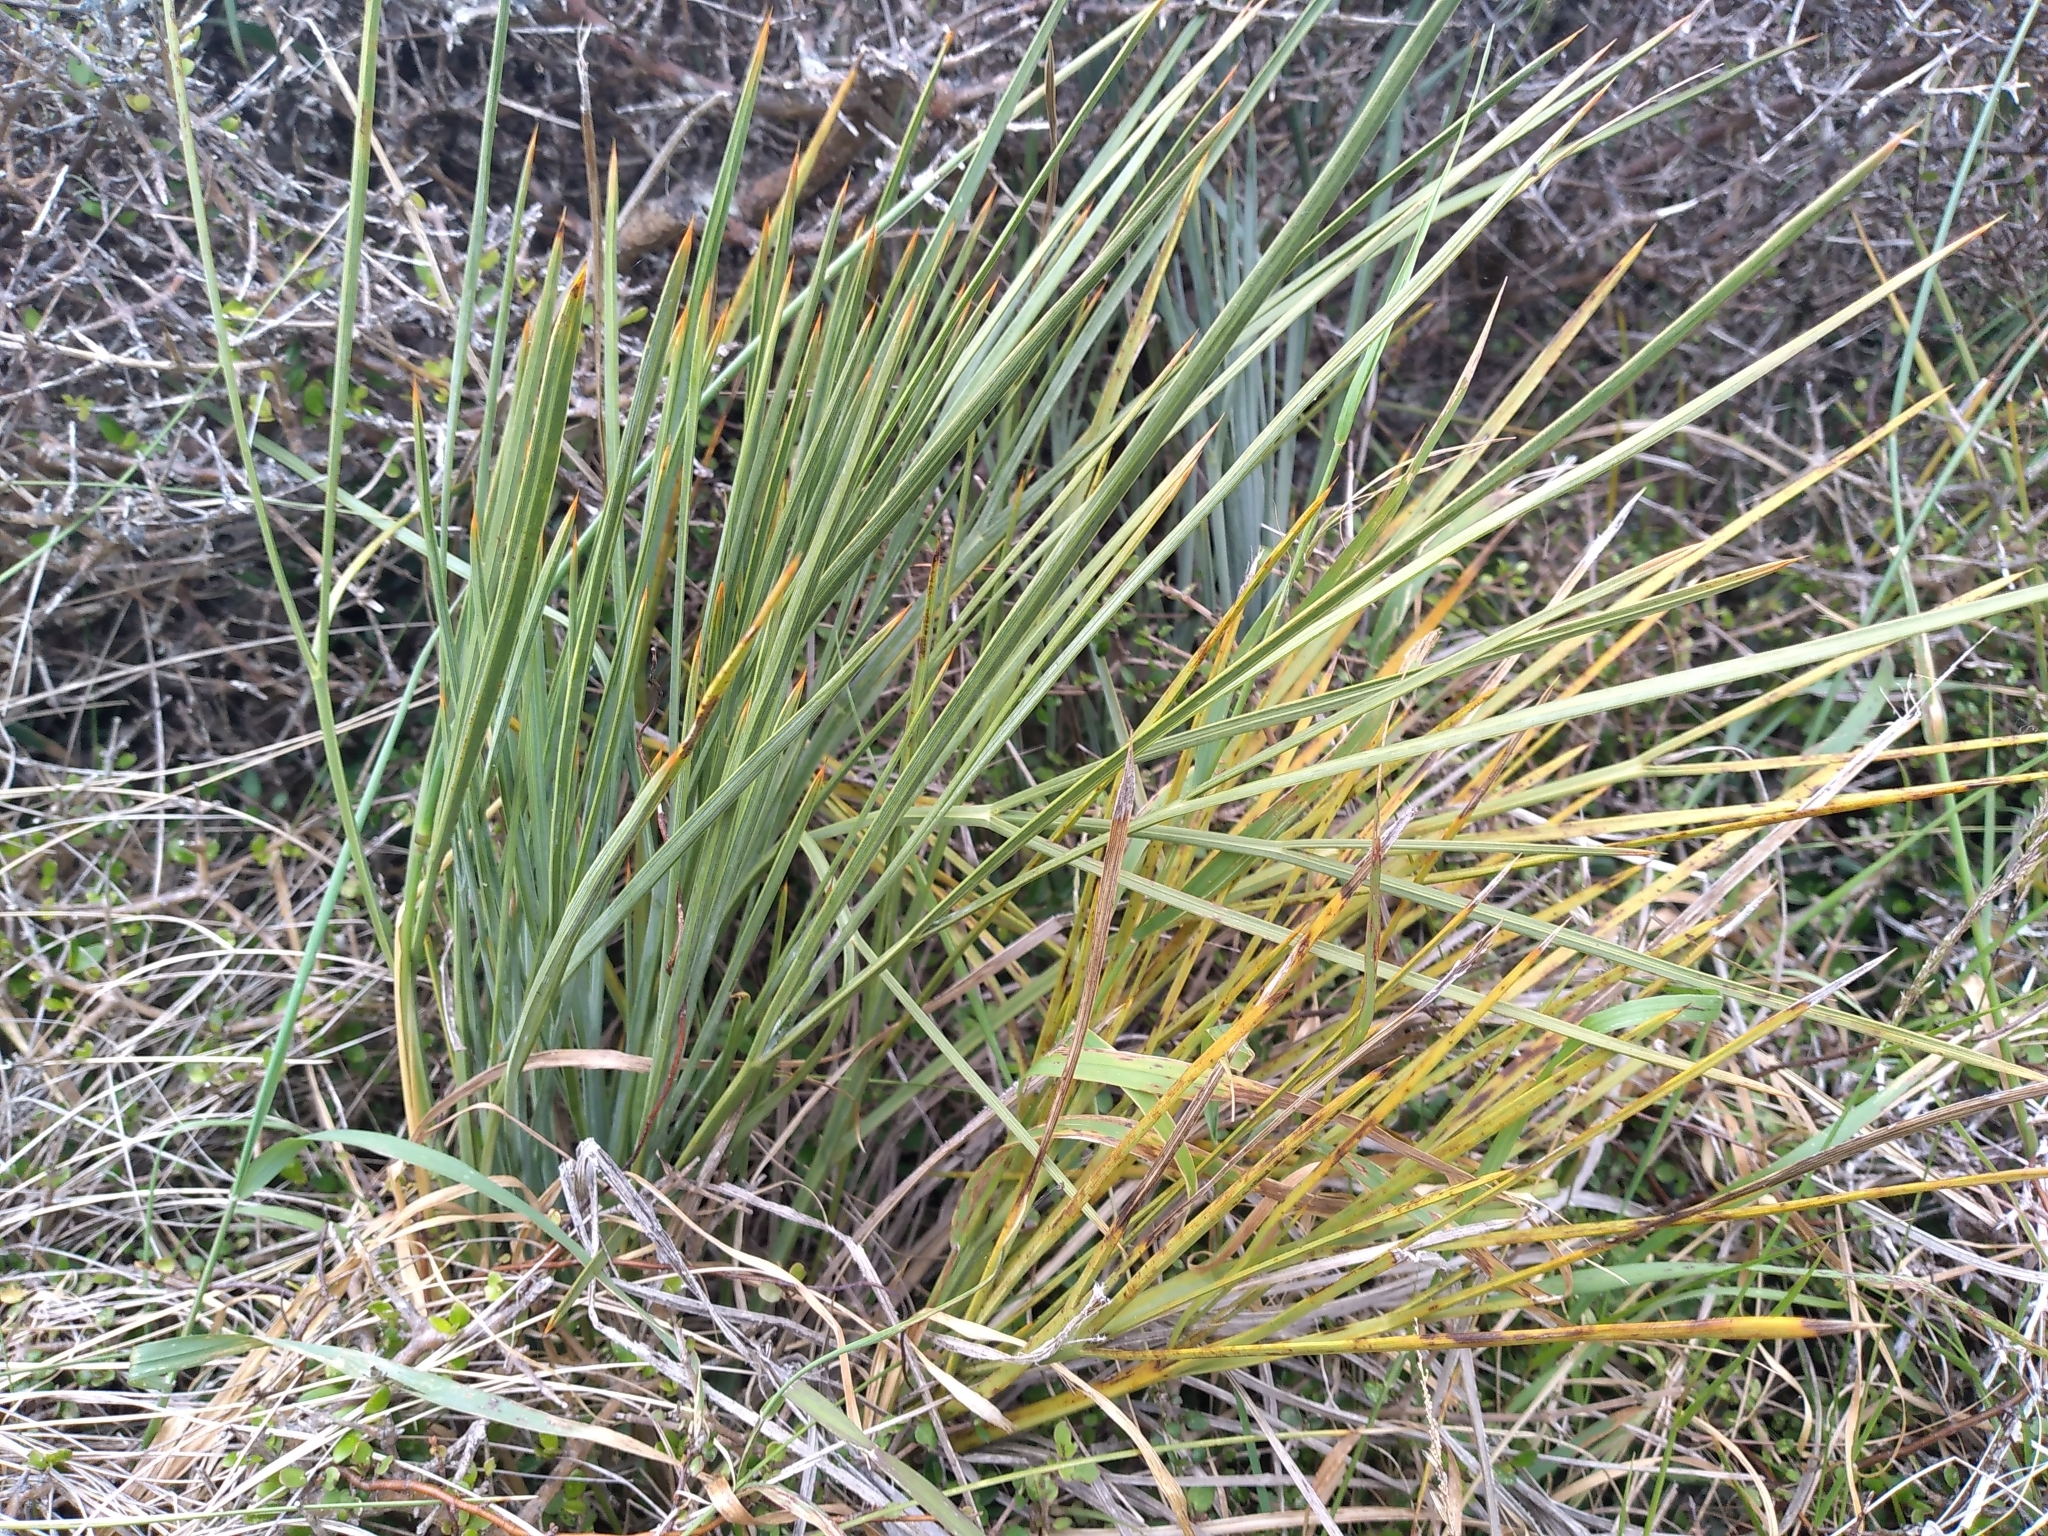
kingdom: Plantae
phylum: Tracheophyta
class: Magnoliopsida
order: Apiales
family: Apiaceae
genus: Aciphylla
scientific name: Aciphylla squarrosa
